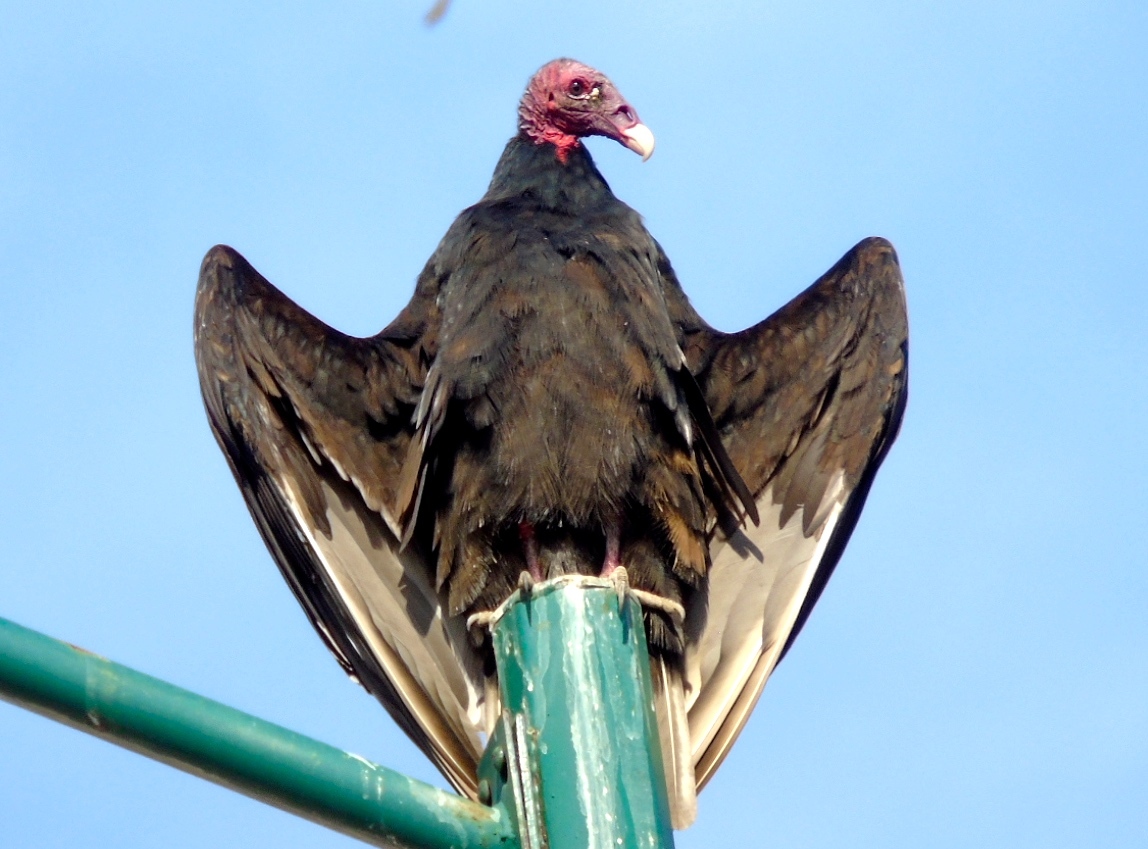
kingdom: Animalia
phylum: Chordata
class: Aves
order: Accipitriformes
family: Cathartidae
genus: Cathartes
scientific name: Cathartes aura
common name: Turkey vulture
